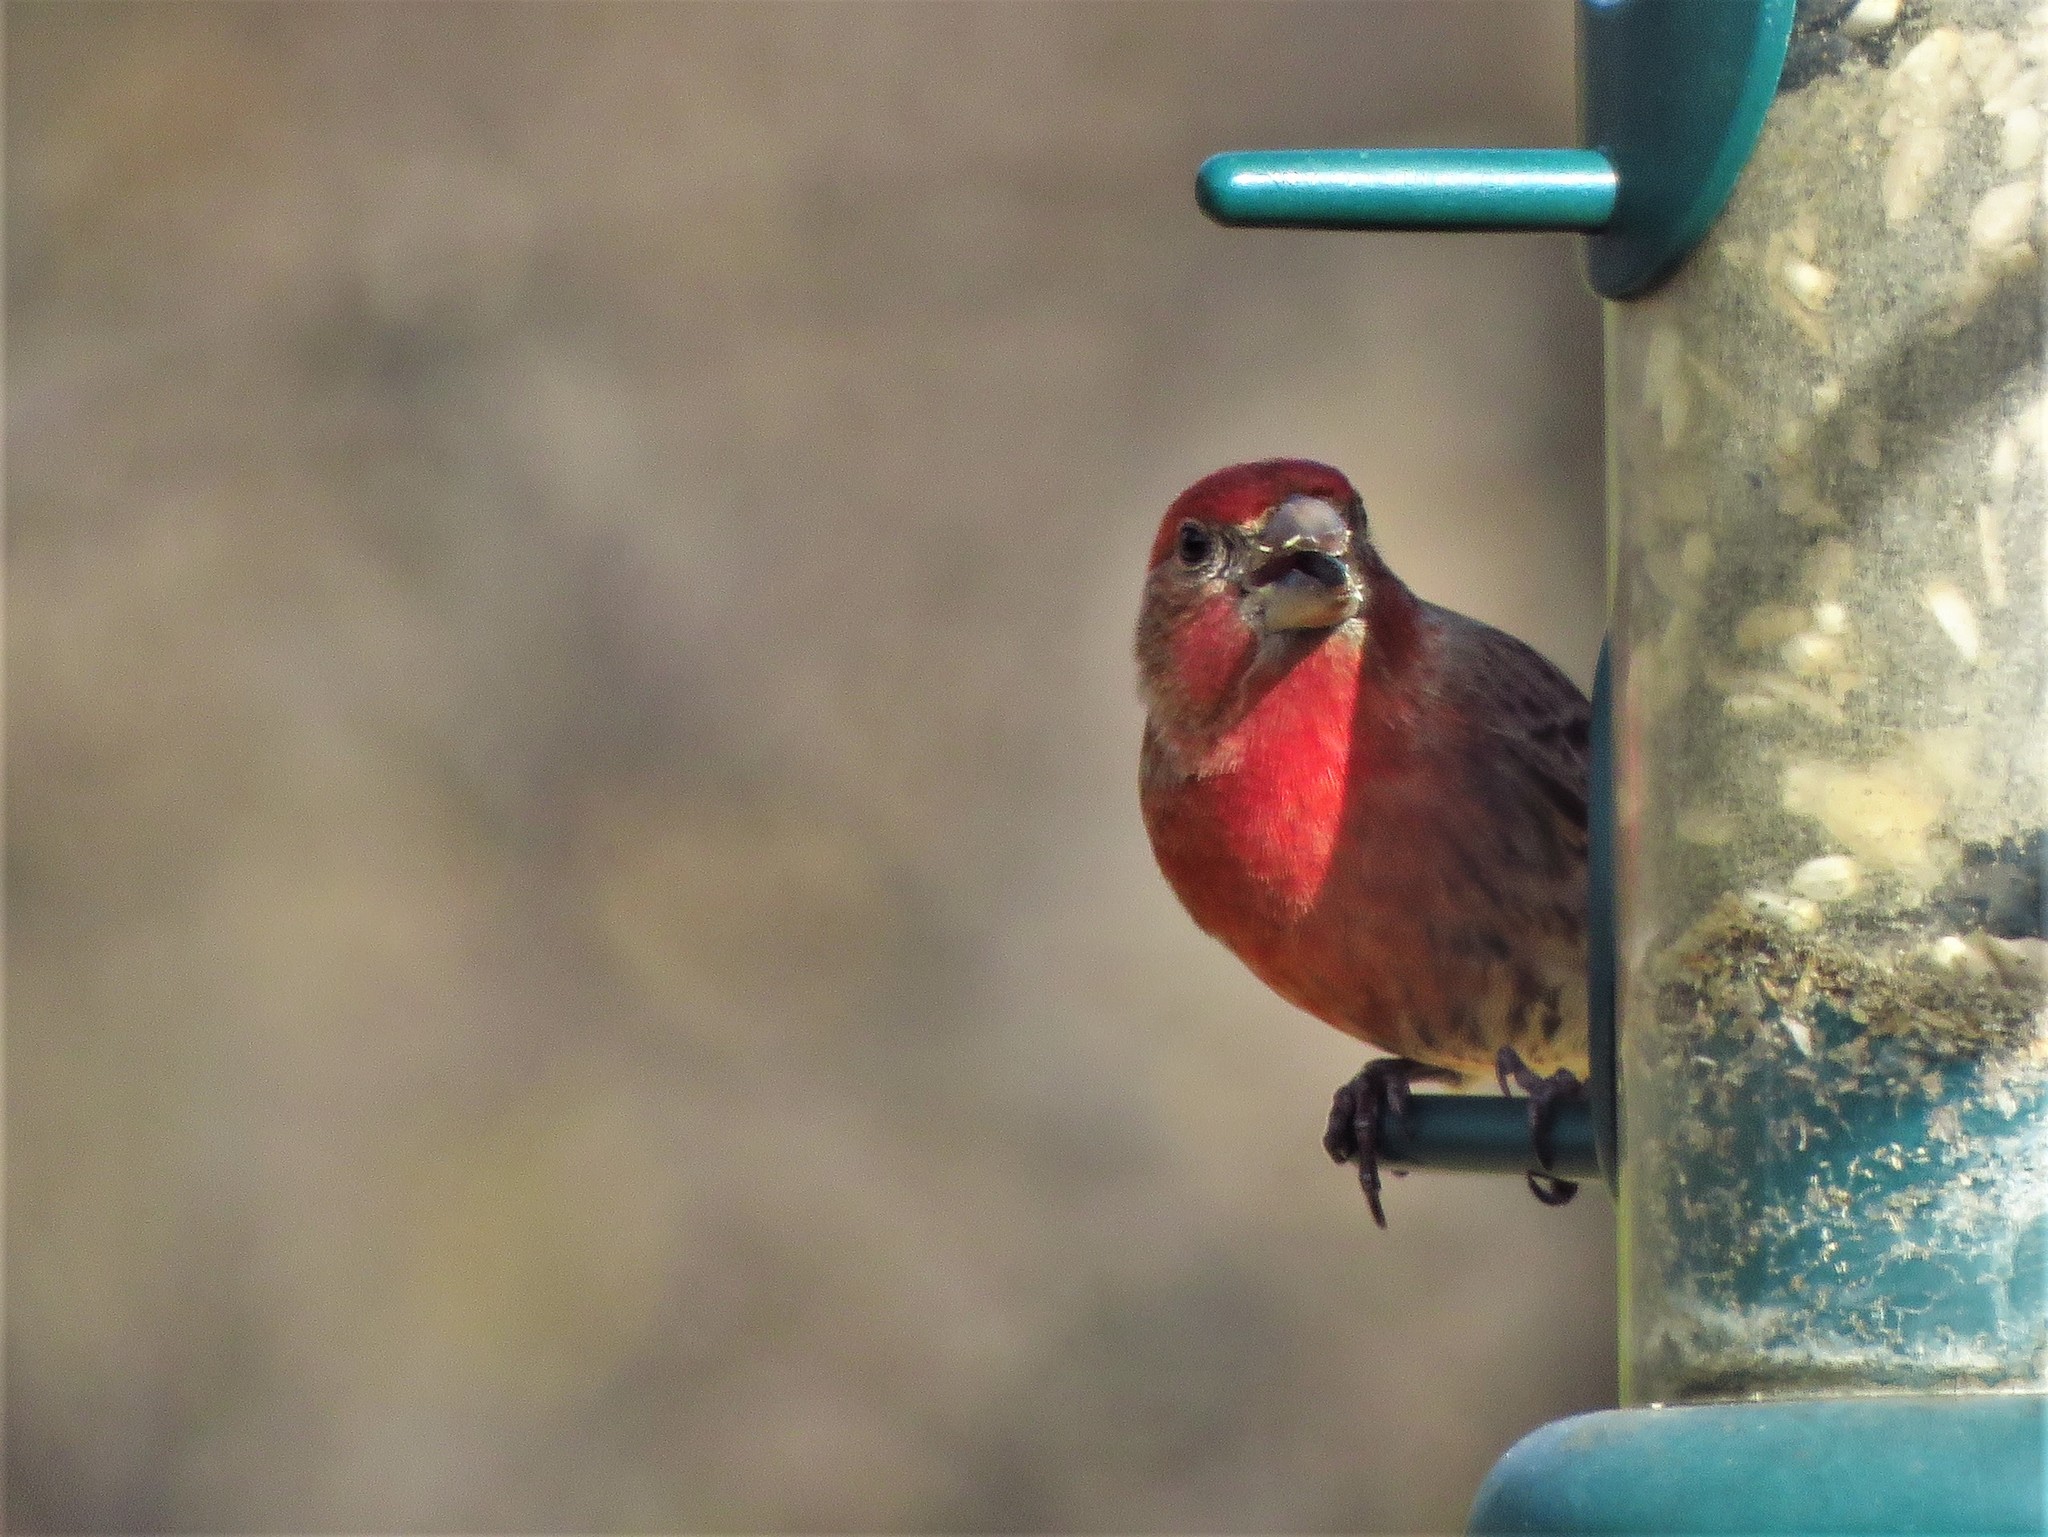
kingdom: Animalia
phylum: Chordata
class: Aves
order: Passeriformes
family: Fringillidae
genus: Haemorhous
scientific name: Haemorhous mexicanus
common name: House finch
